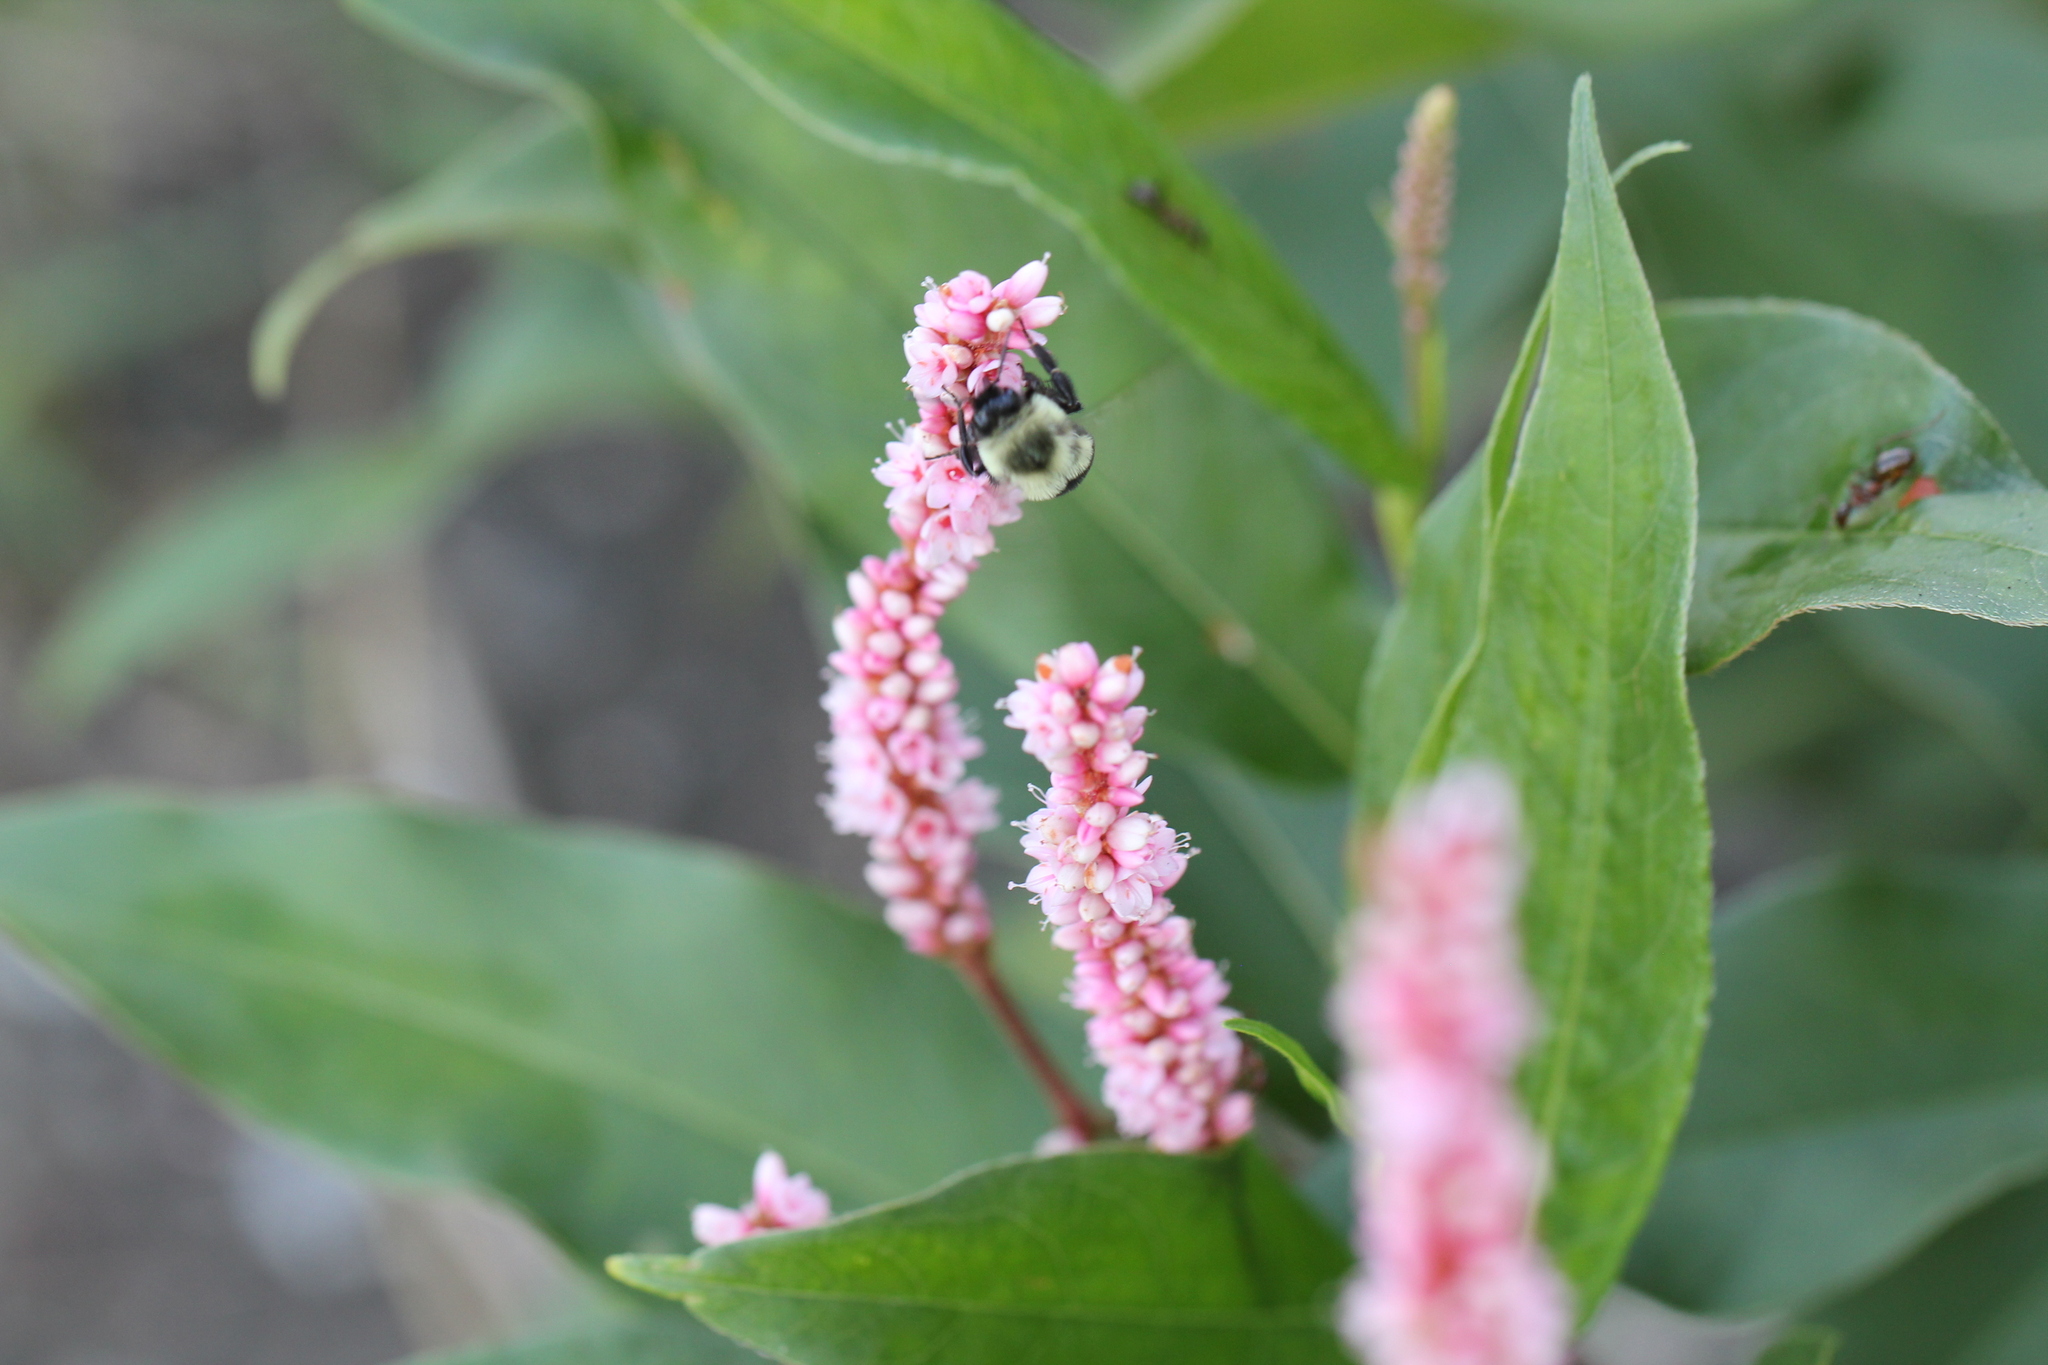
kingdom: Animalia
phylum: Arthropoda
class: Insecta
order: Hymenoptera
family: Apidae
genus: Bombus
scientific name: Bombus impatiens
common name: Common eastern bumble bee
